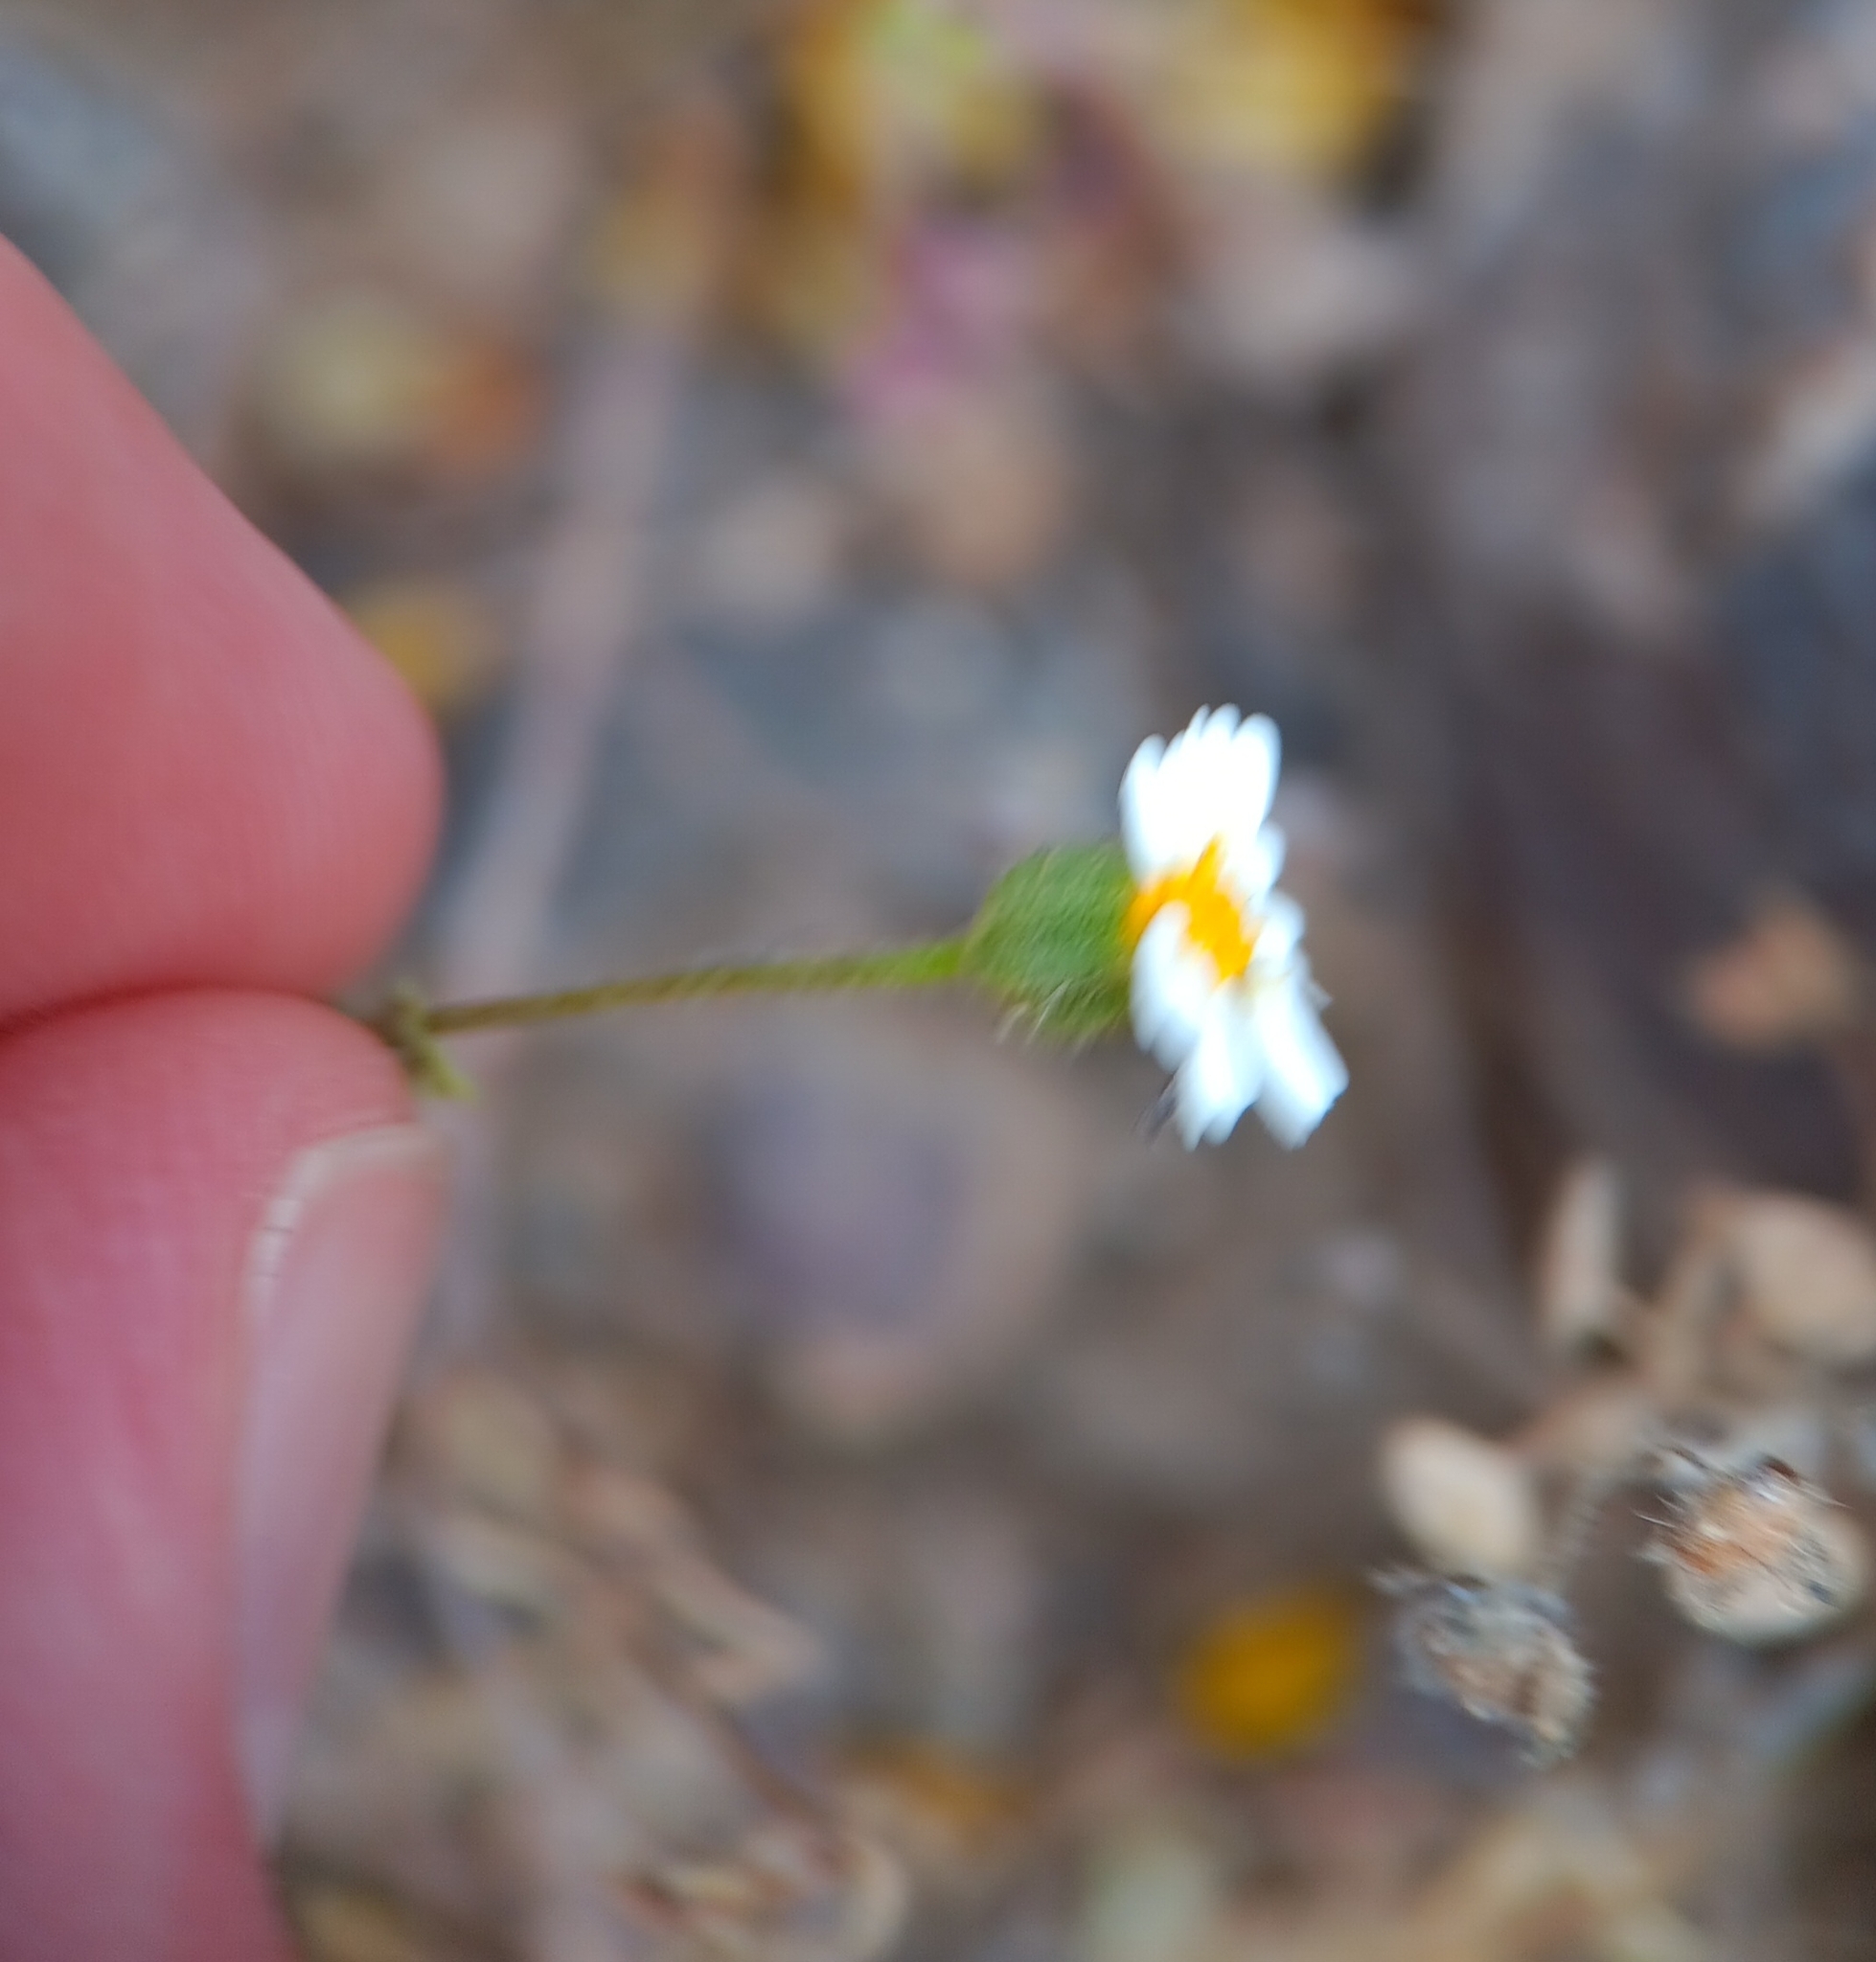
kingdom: Plantae
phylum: Tracheophyta
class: Magnoliopsida
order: Asterales
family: Asteraceae
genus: Laphamia
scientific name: Laphamia emoryi
